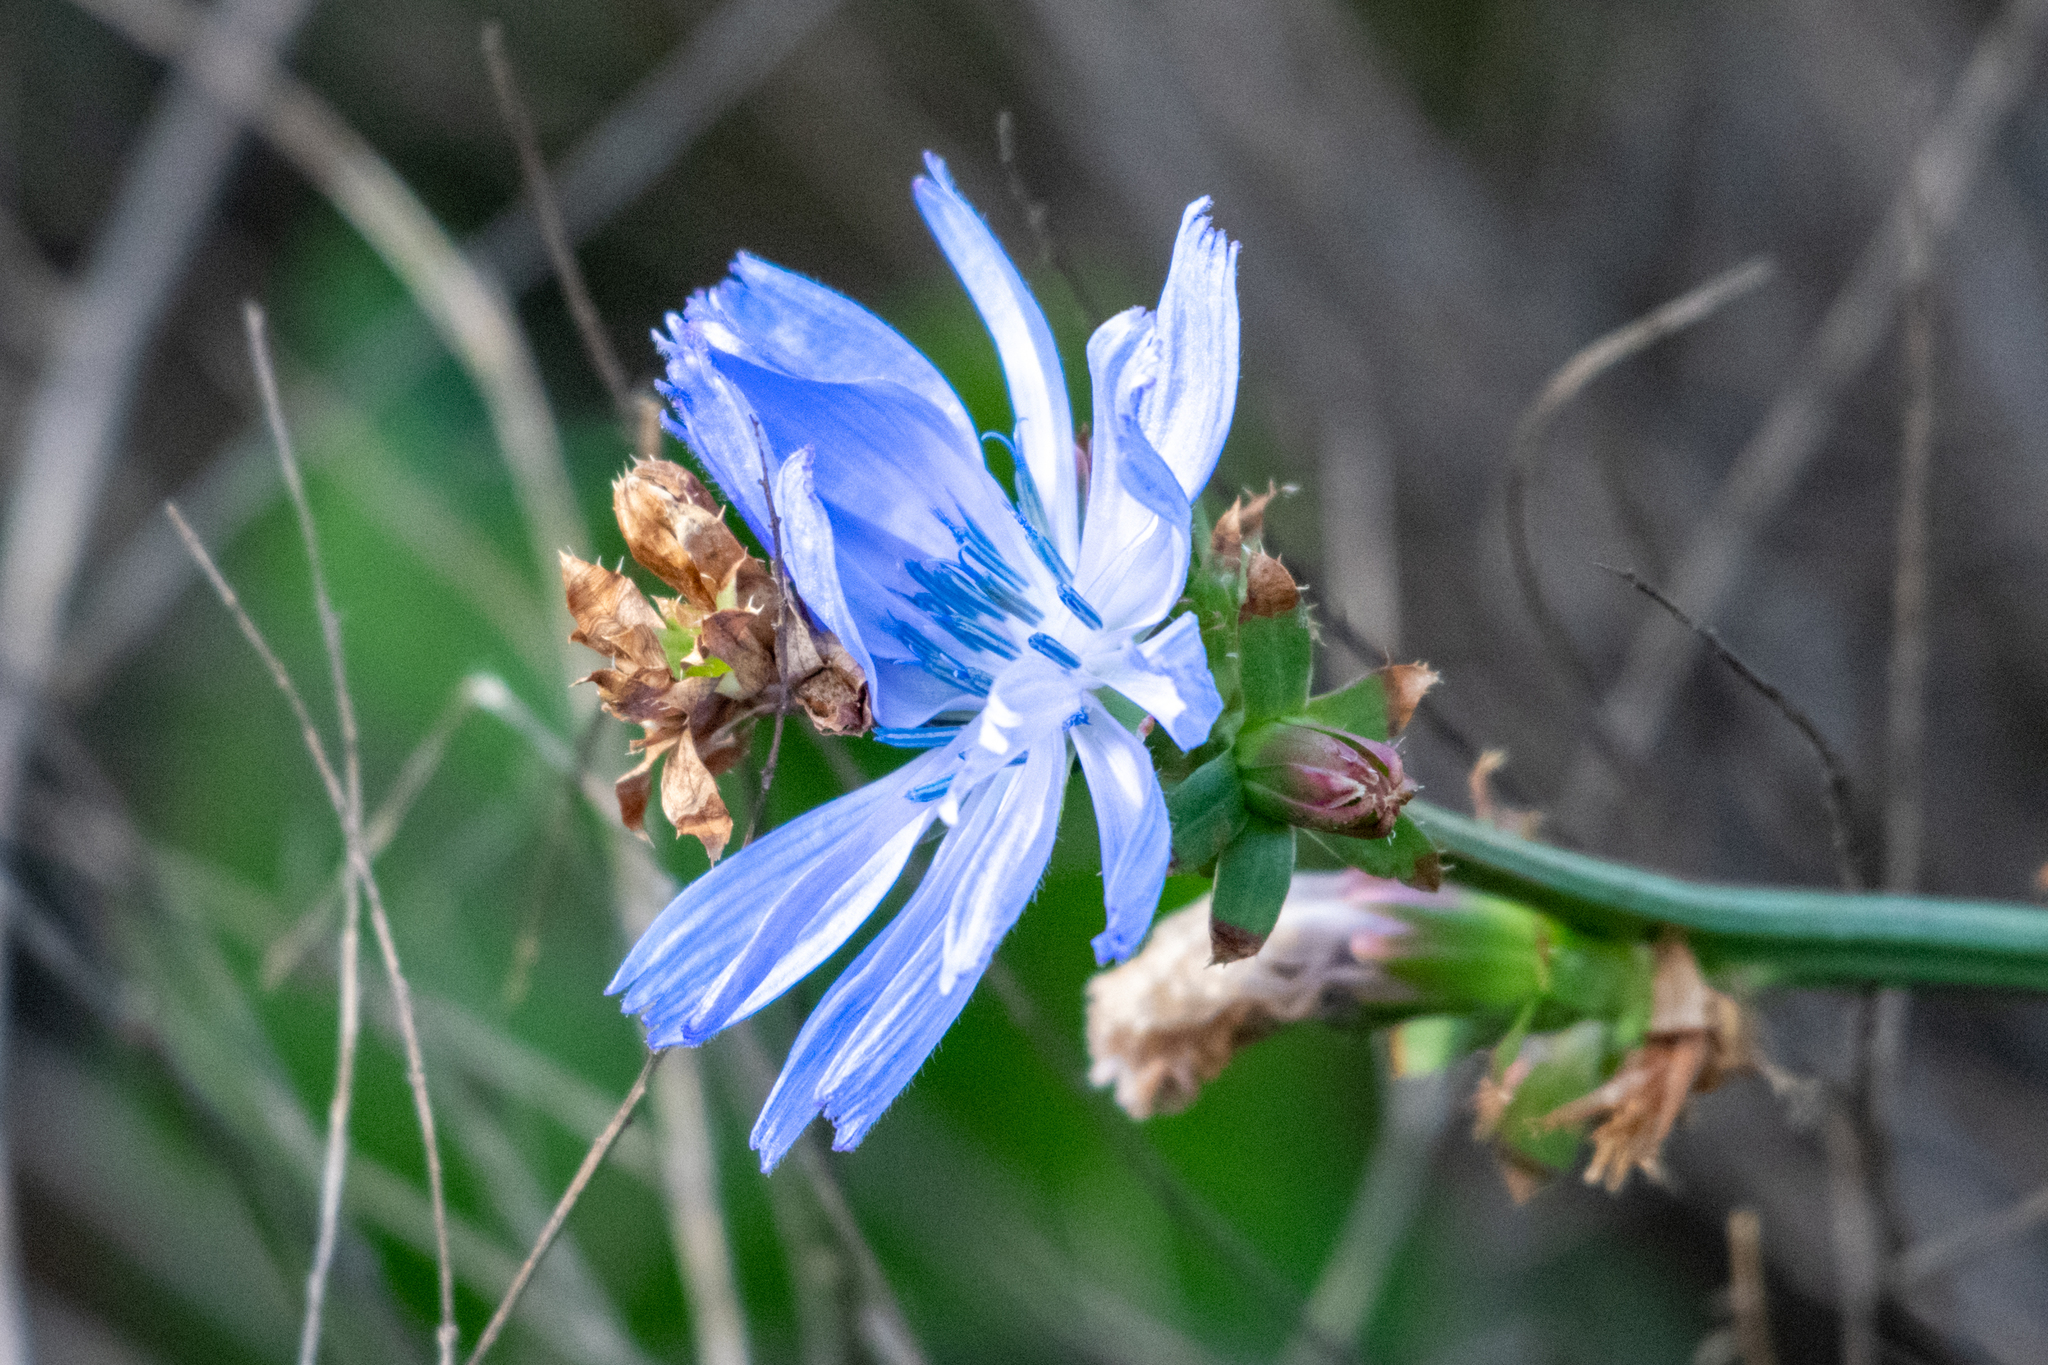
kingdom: Plantae
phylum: Tracheophyta
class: Magnoliopsida
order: Asterales
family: Asteraceae
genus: Cichorium
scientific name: Cichorium intybus
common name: Chicory
